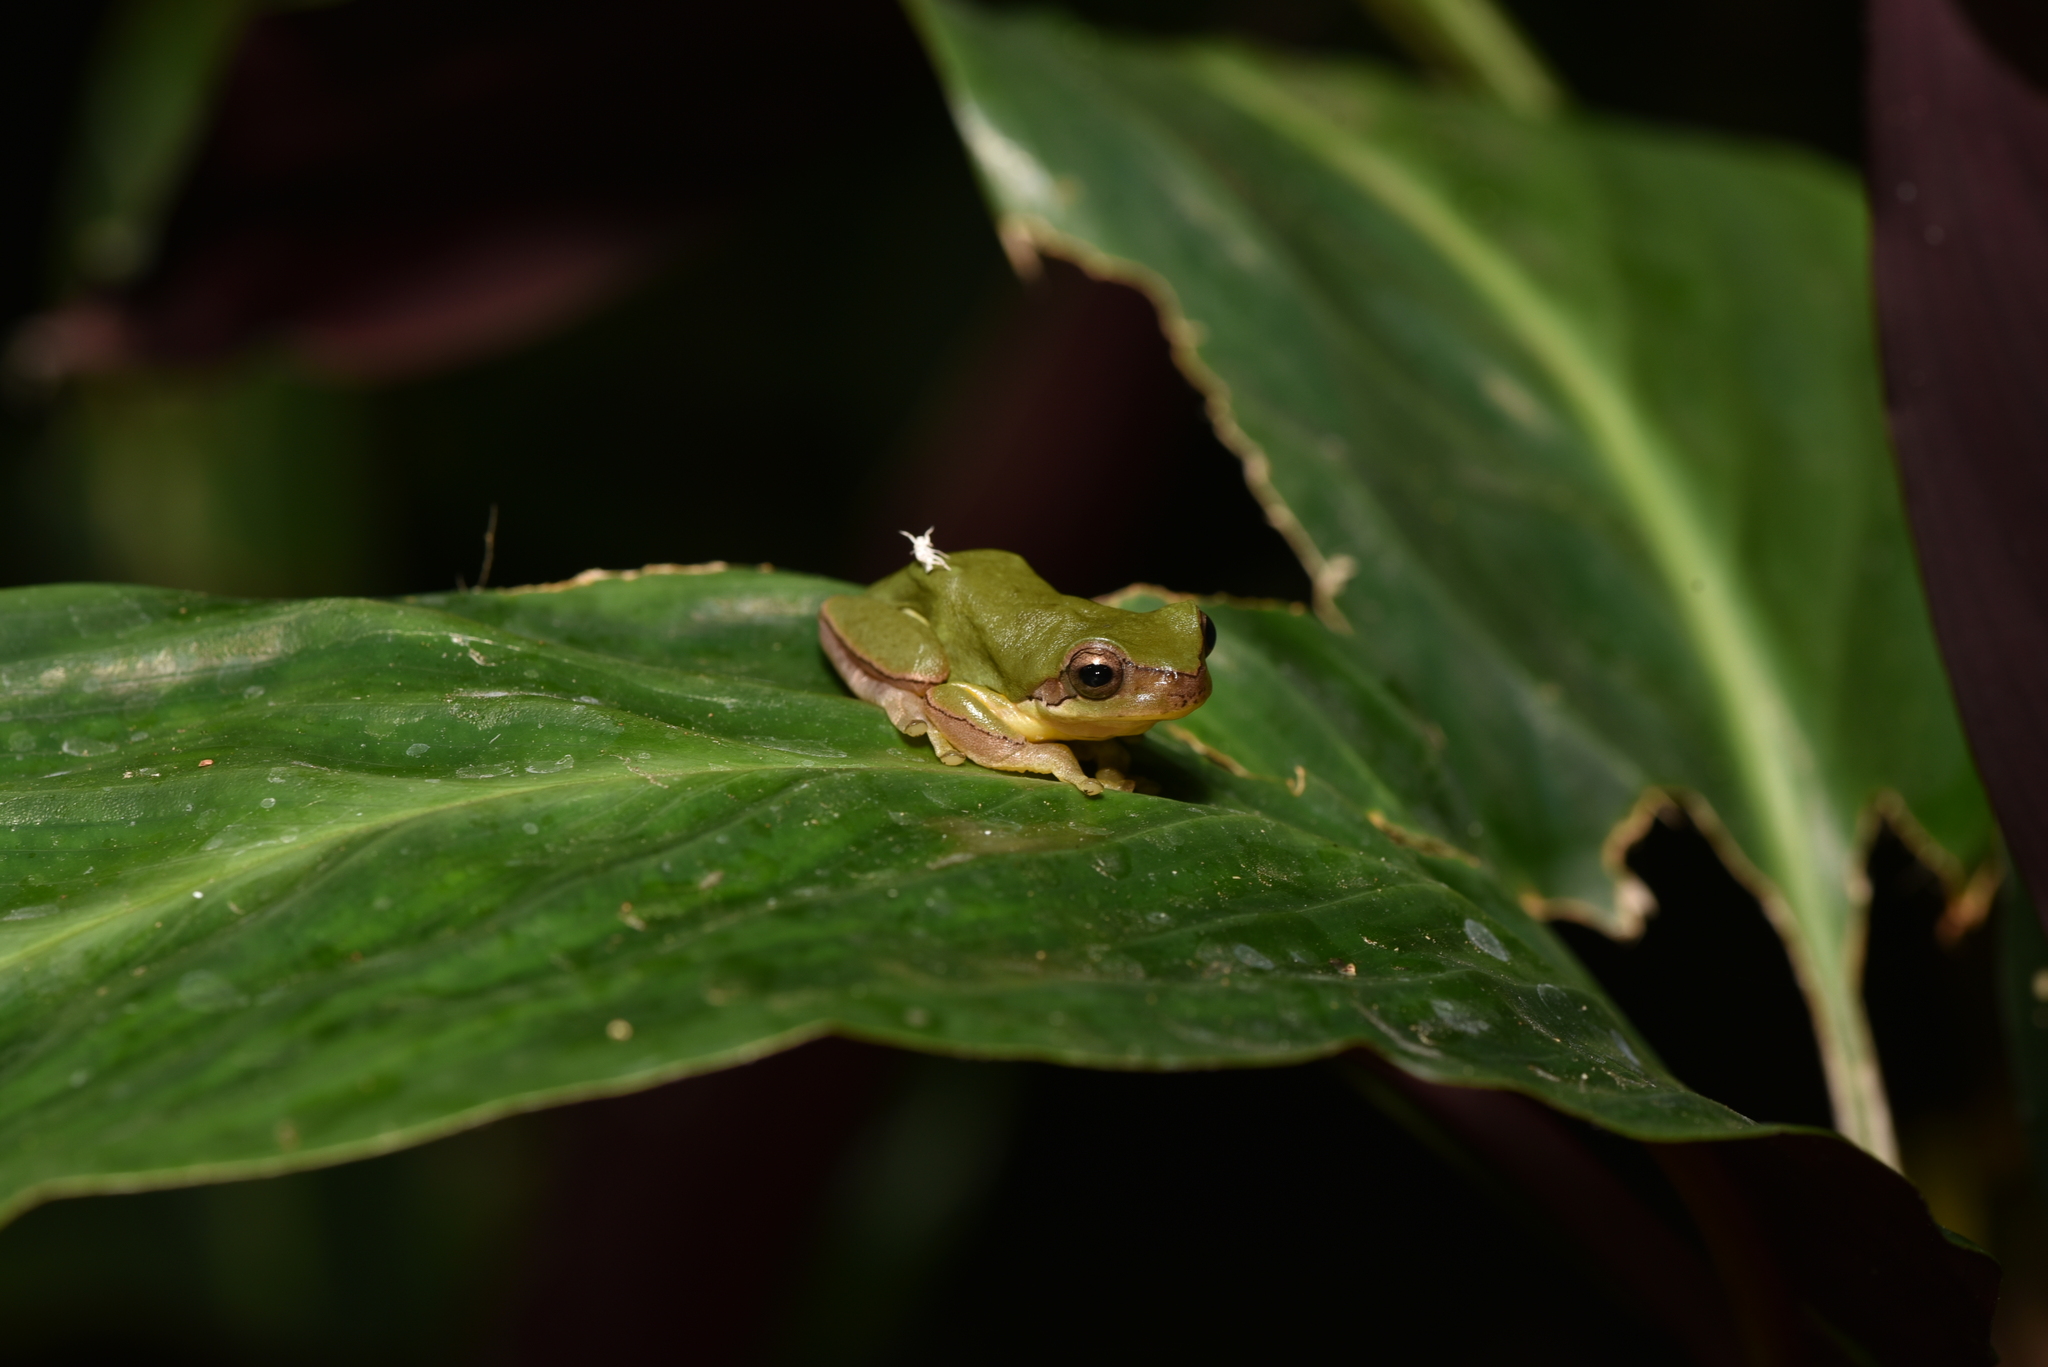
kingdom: Animalia
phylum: Chordata
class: Amphibia
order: Anura
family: Hylidae
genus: Hyla
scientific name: Hyla chinensis
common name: Common chinese treefrog
